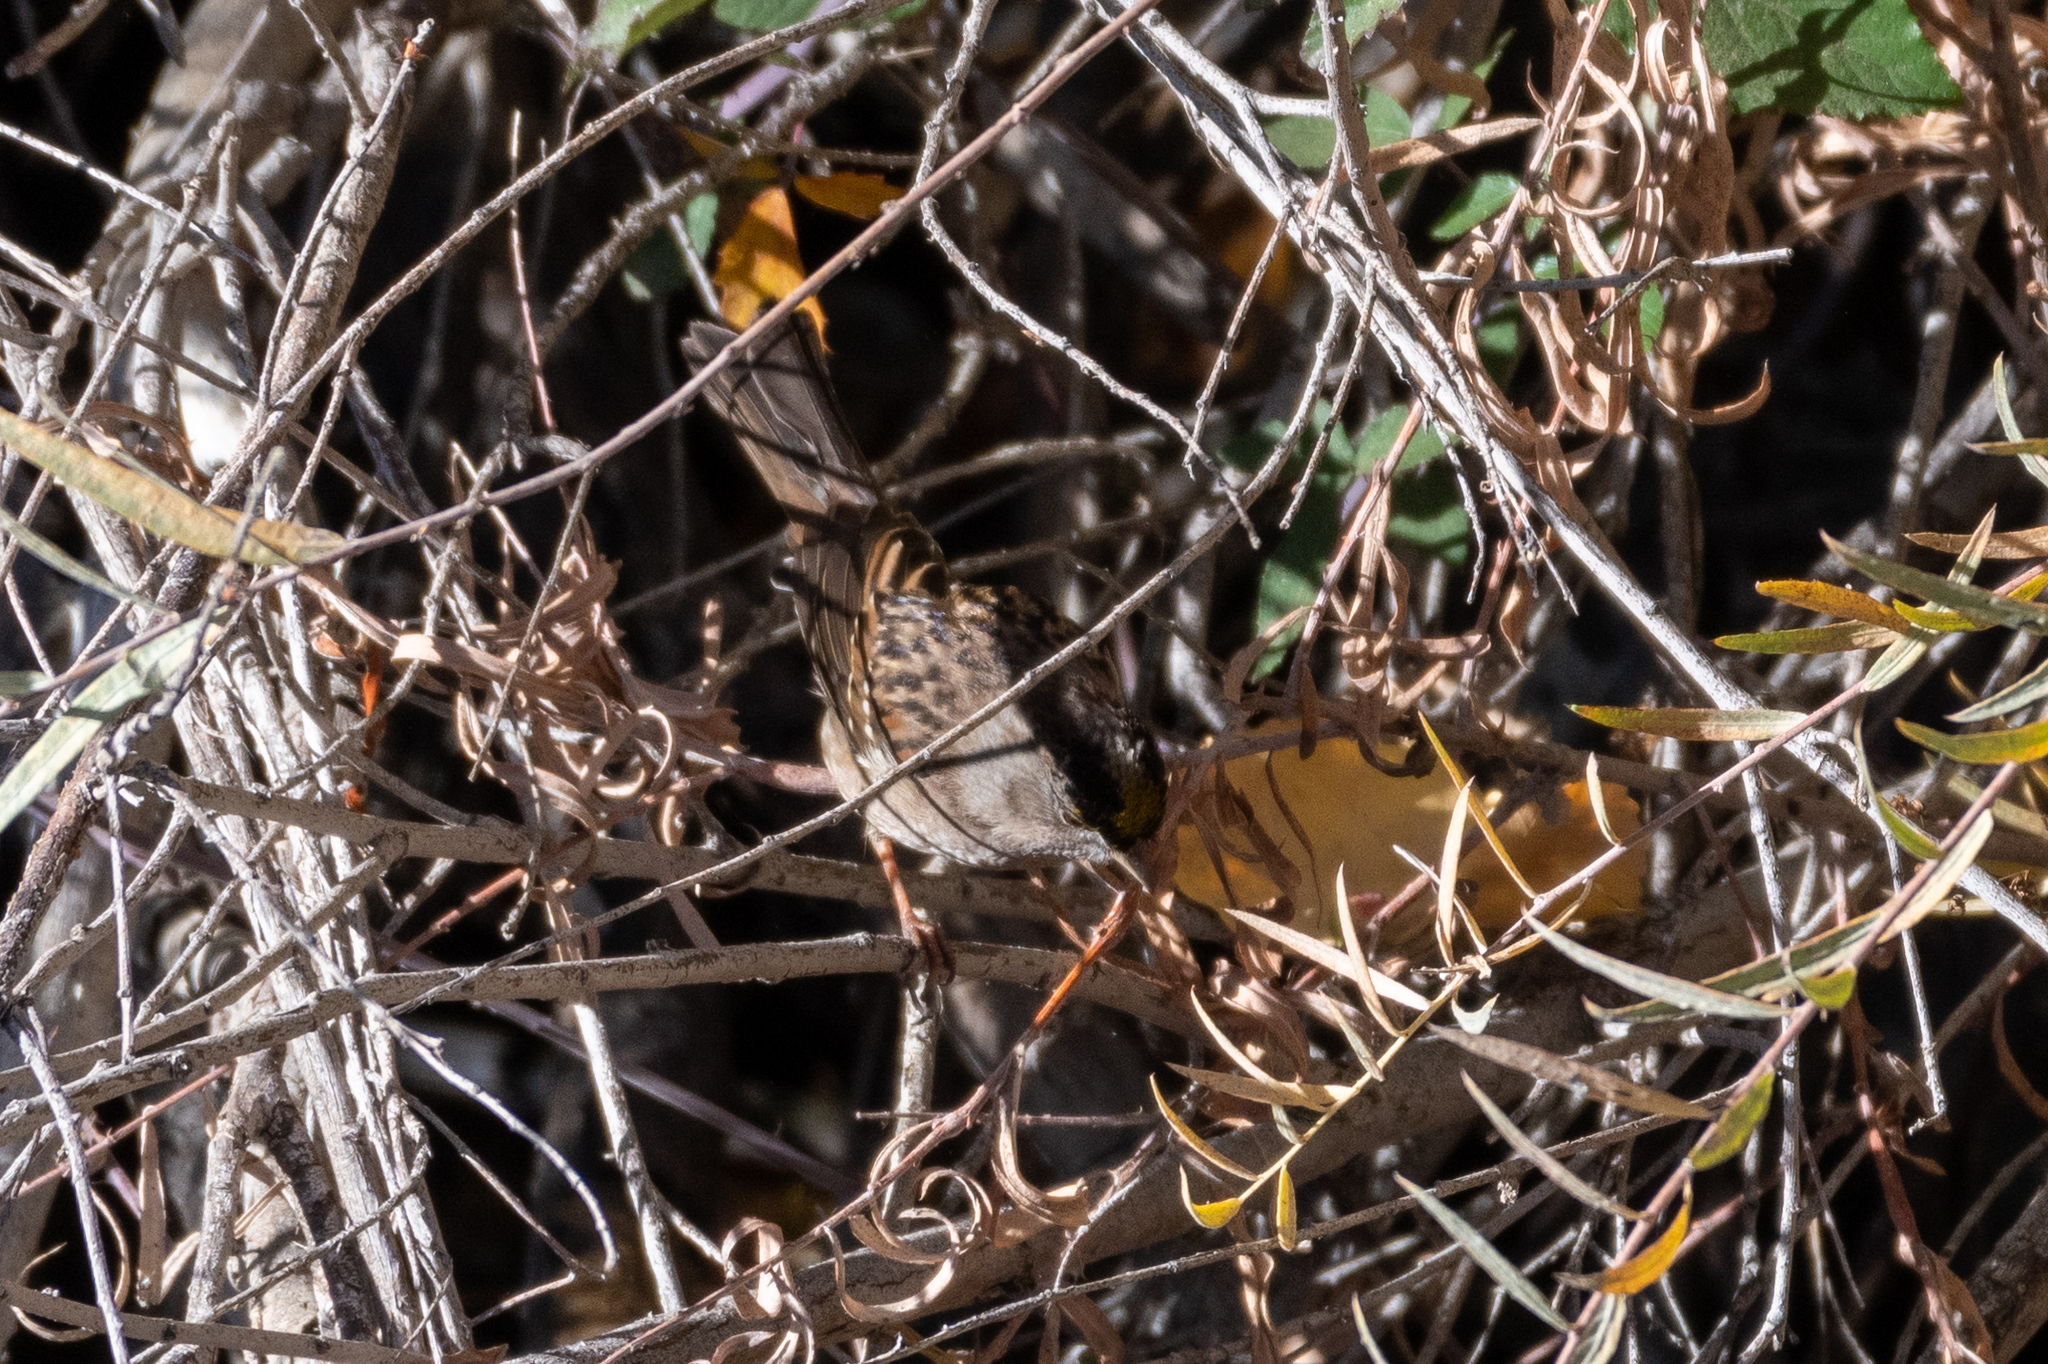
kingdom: Animalia
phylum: Chordata
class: Aves
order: Passeriformes
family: Passerellidae
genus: Zonotrichia
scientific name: Zonotrichia atricapilla
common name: Golden-crowned sparrow
